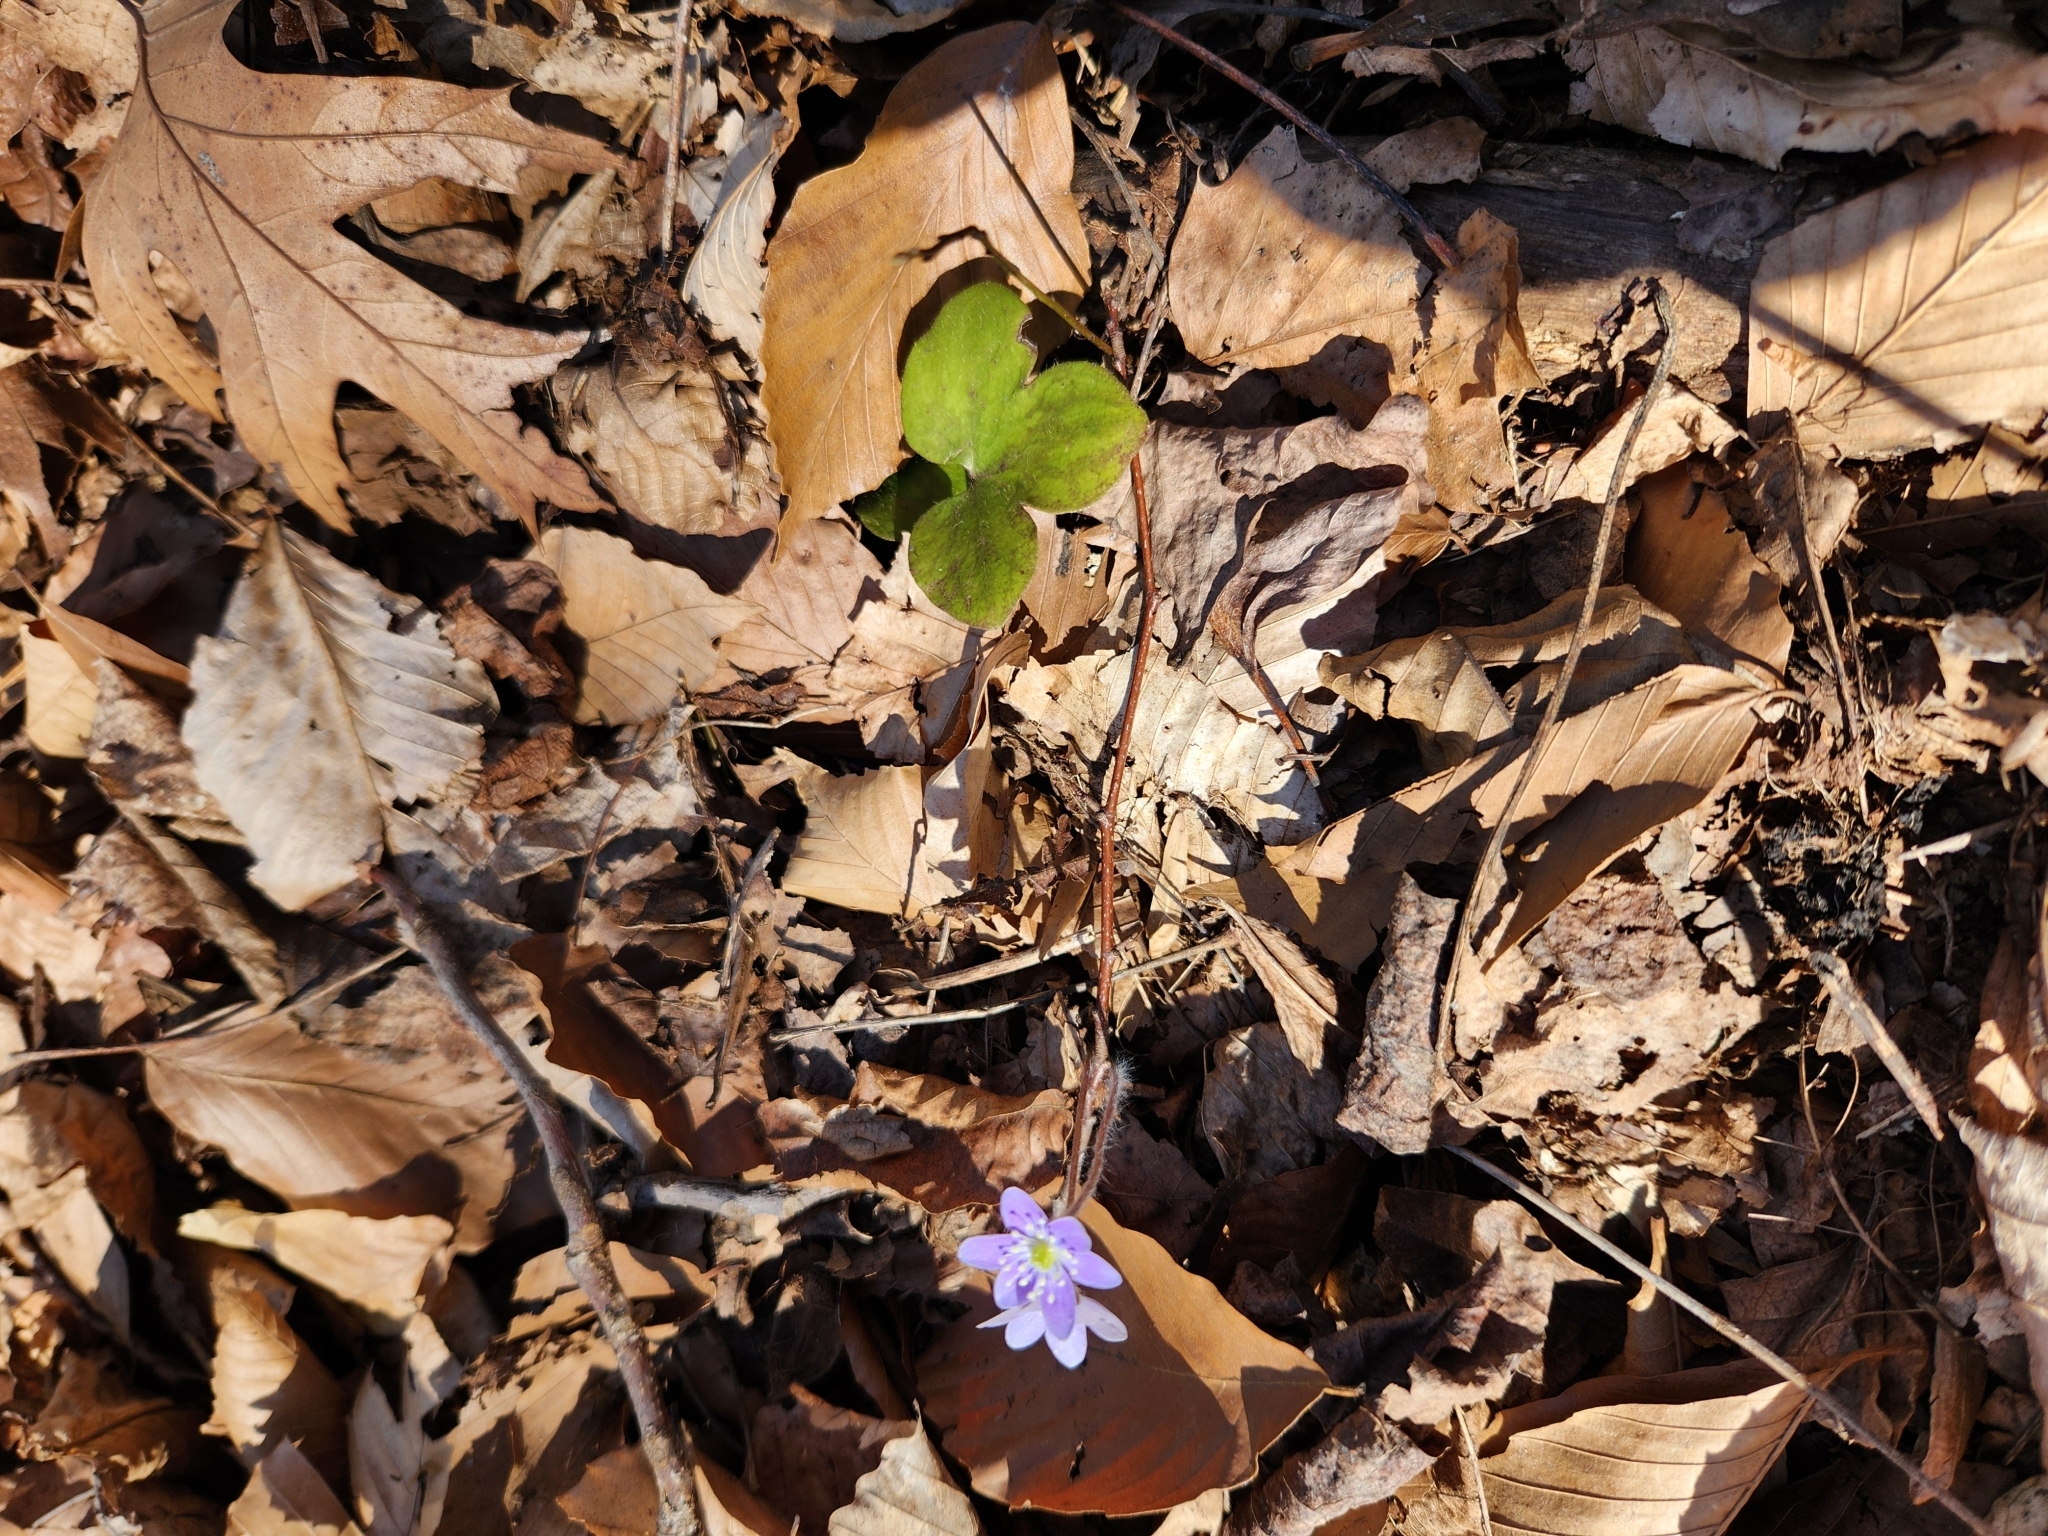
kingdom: Plantae
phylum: Tracheophyta
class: Magnoliopsida
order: Ranunculales
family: Ranunculaceae
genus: Hepatica
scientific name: Hepatica americana
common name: American hepatica
